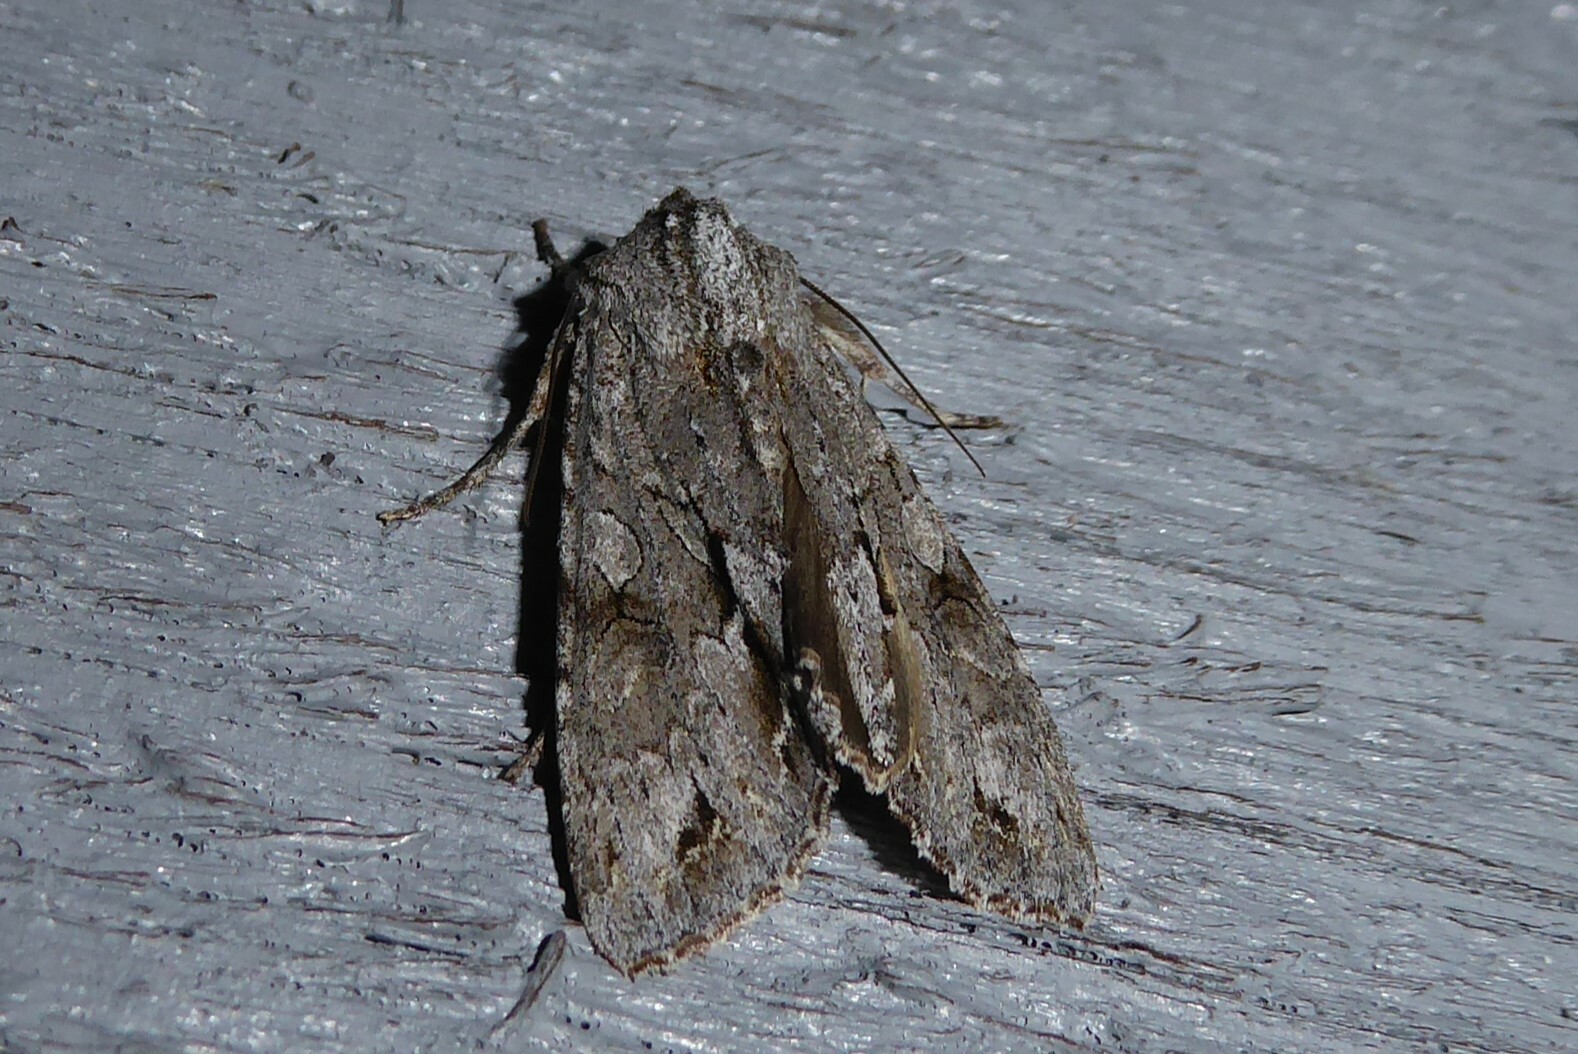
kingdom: Animalia
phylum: Arthropoda
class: Insecta
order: Lepidoptera
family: Noctuidae
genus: Ichneutica
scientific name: Ichneutica
